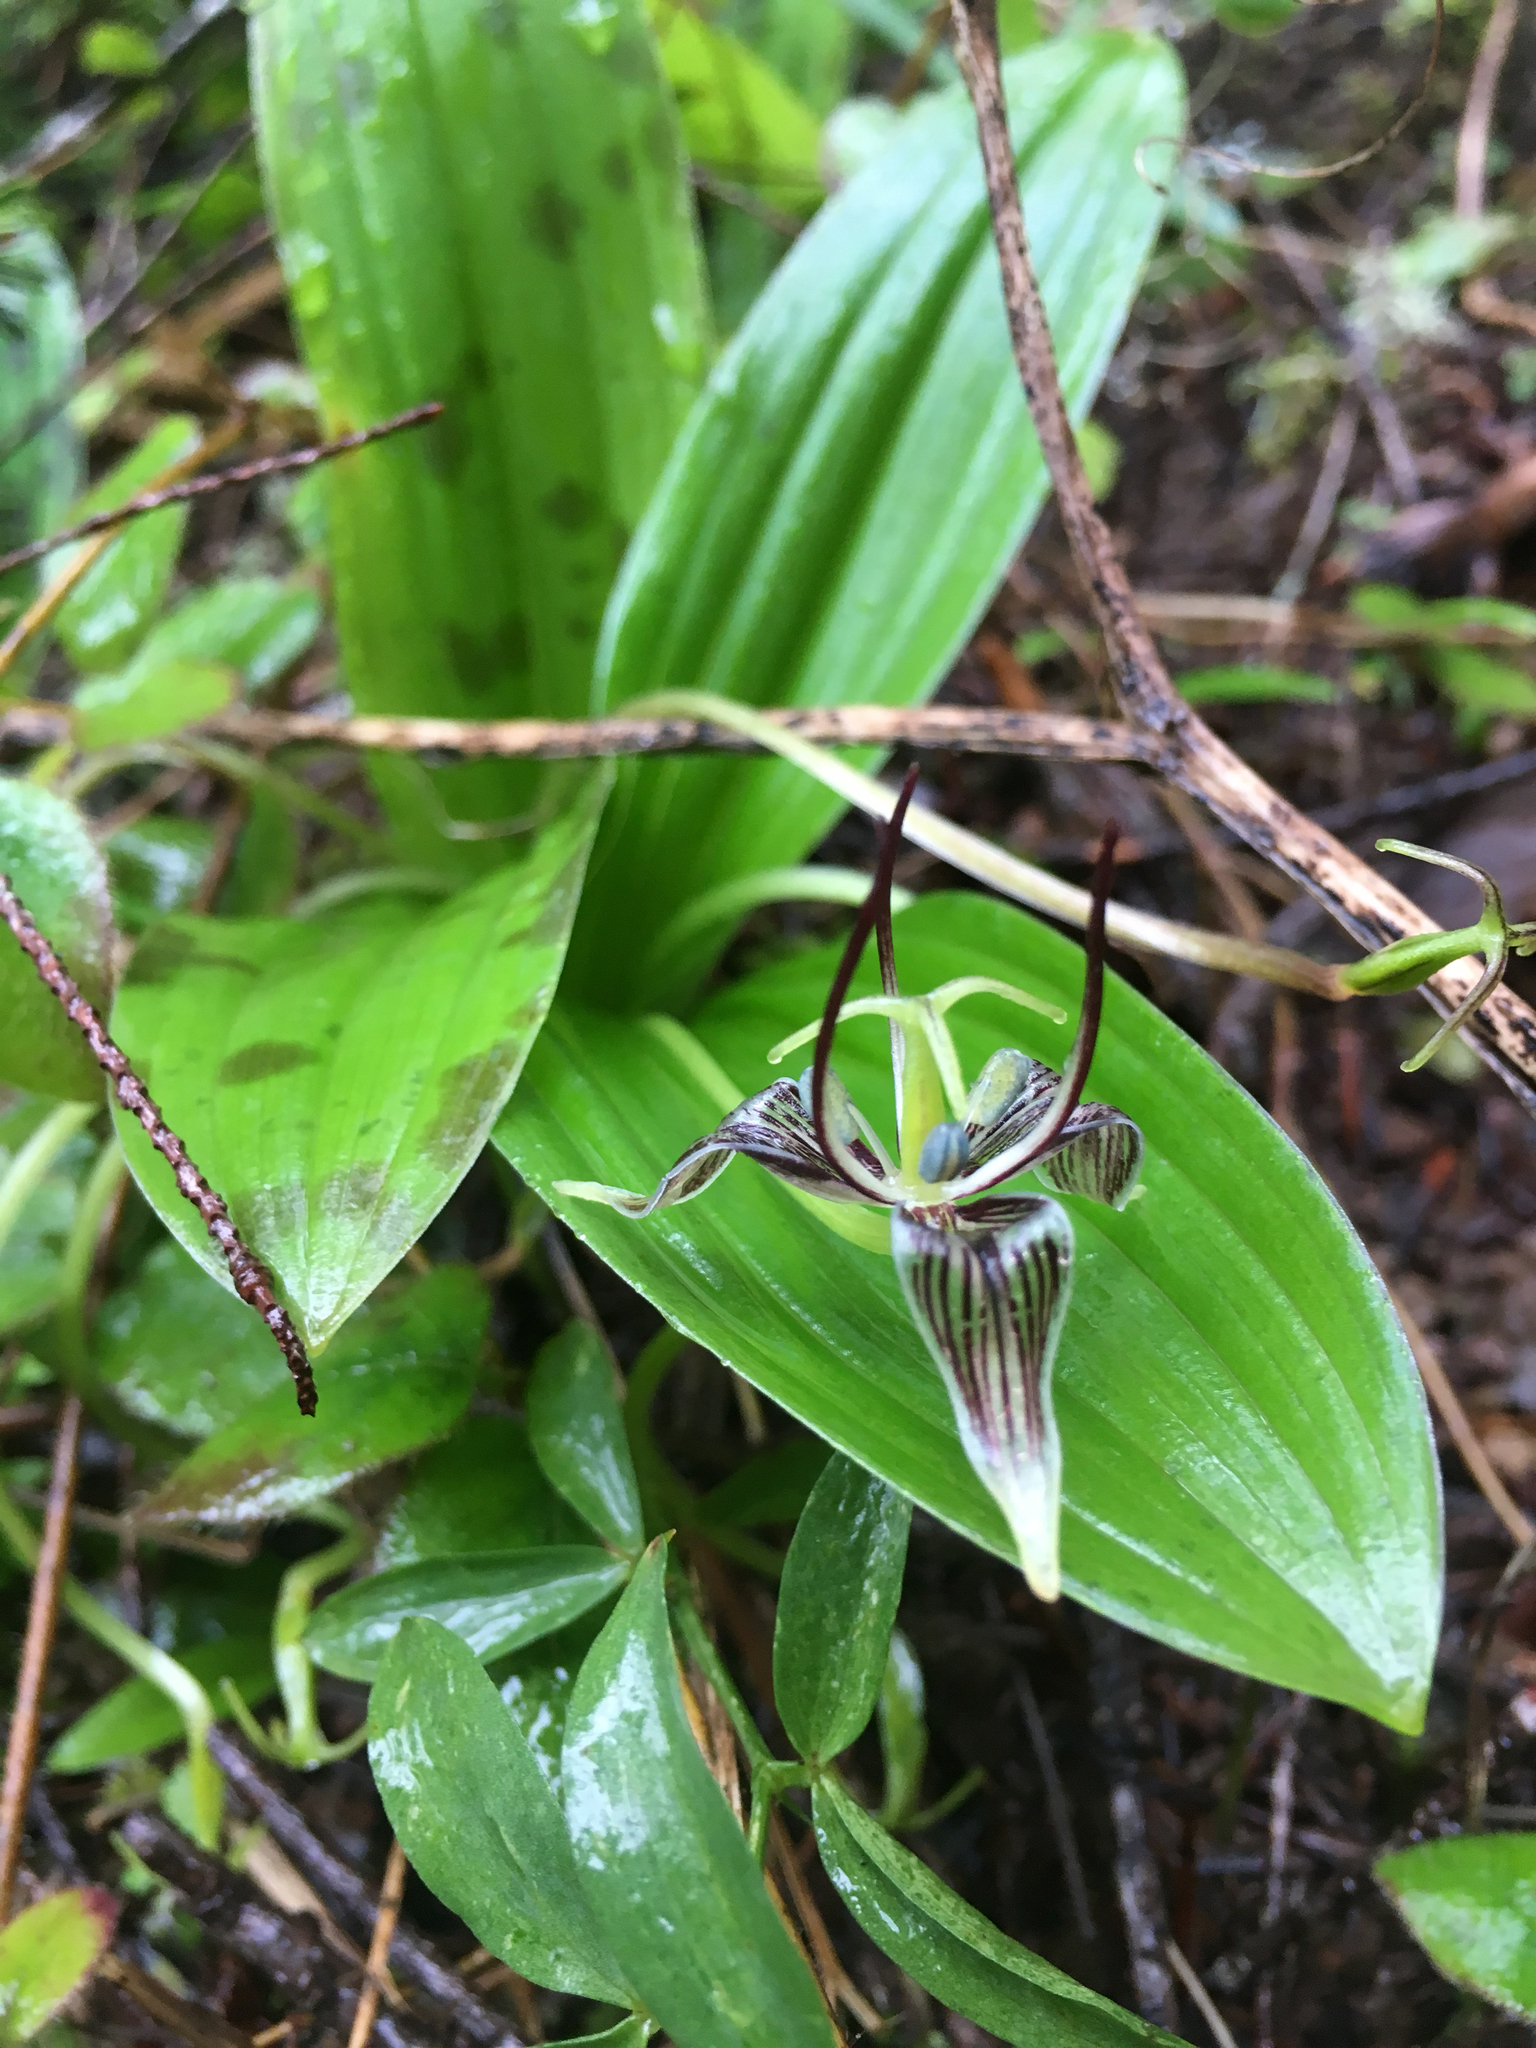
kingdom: Plantae
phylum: Tracheophyta
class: Liliopsida
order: Liliales
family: Liliaceae
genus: Scoliopus
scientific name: Scoliopus bigelovii
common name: Foetid adder's-tongue
